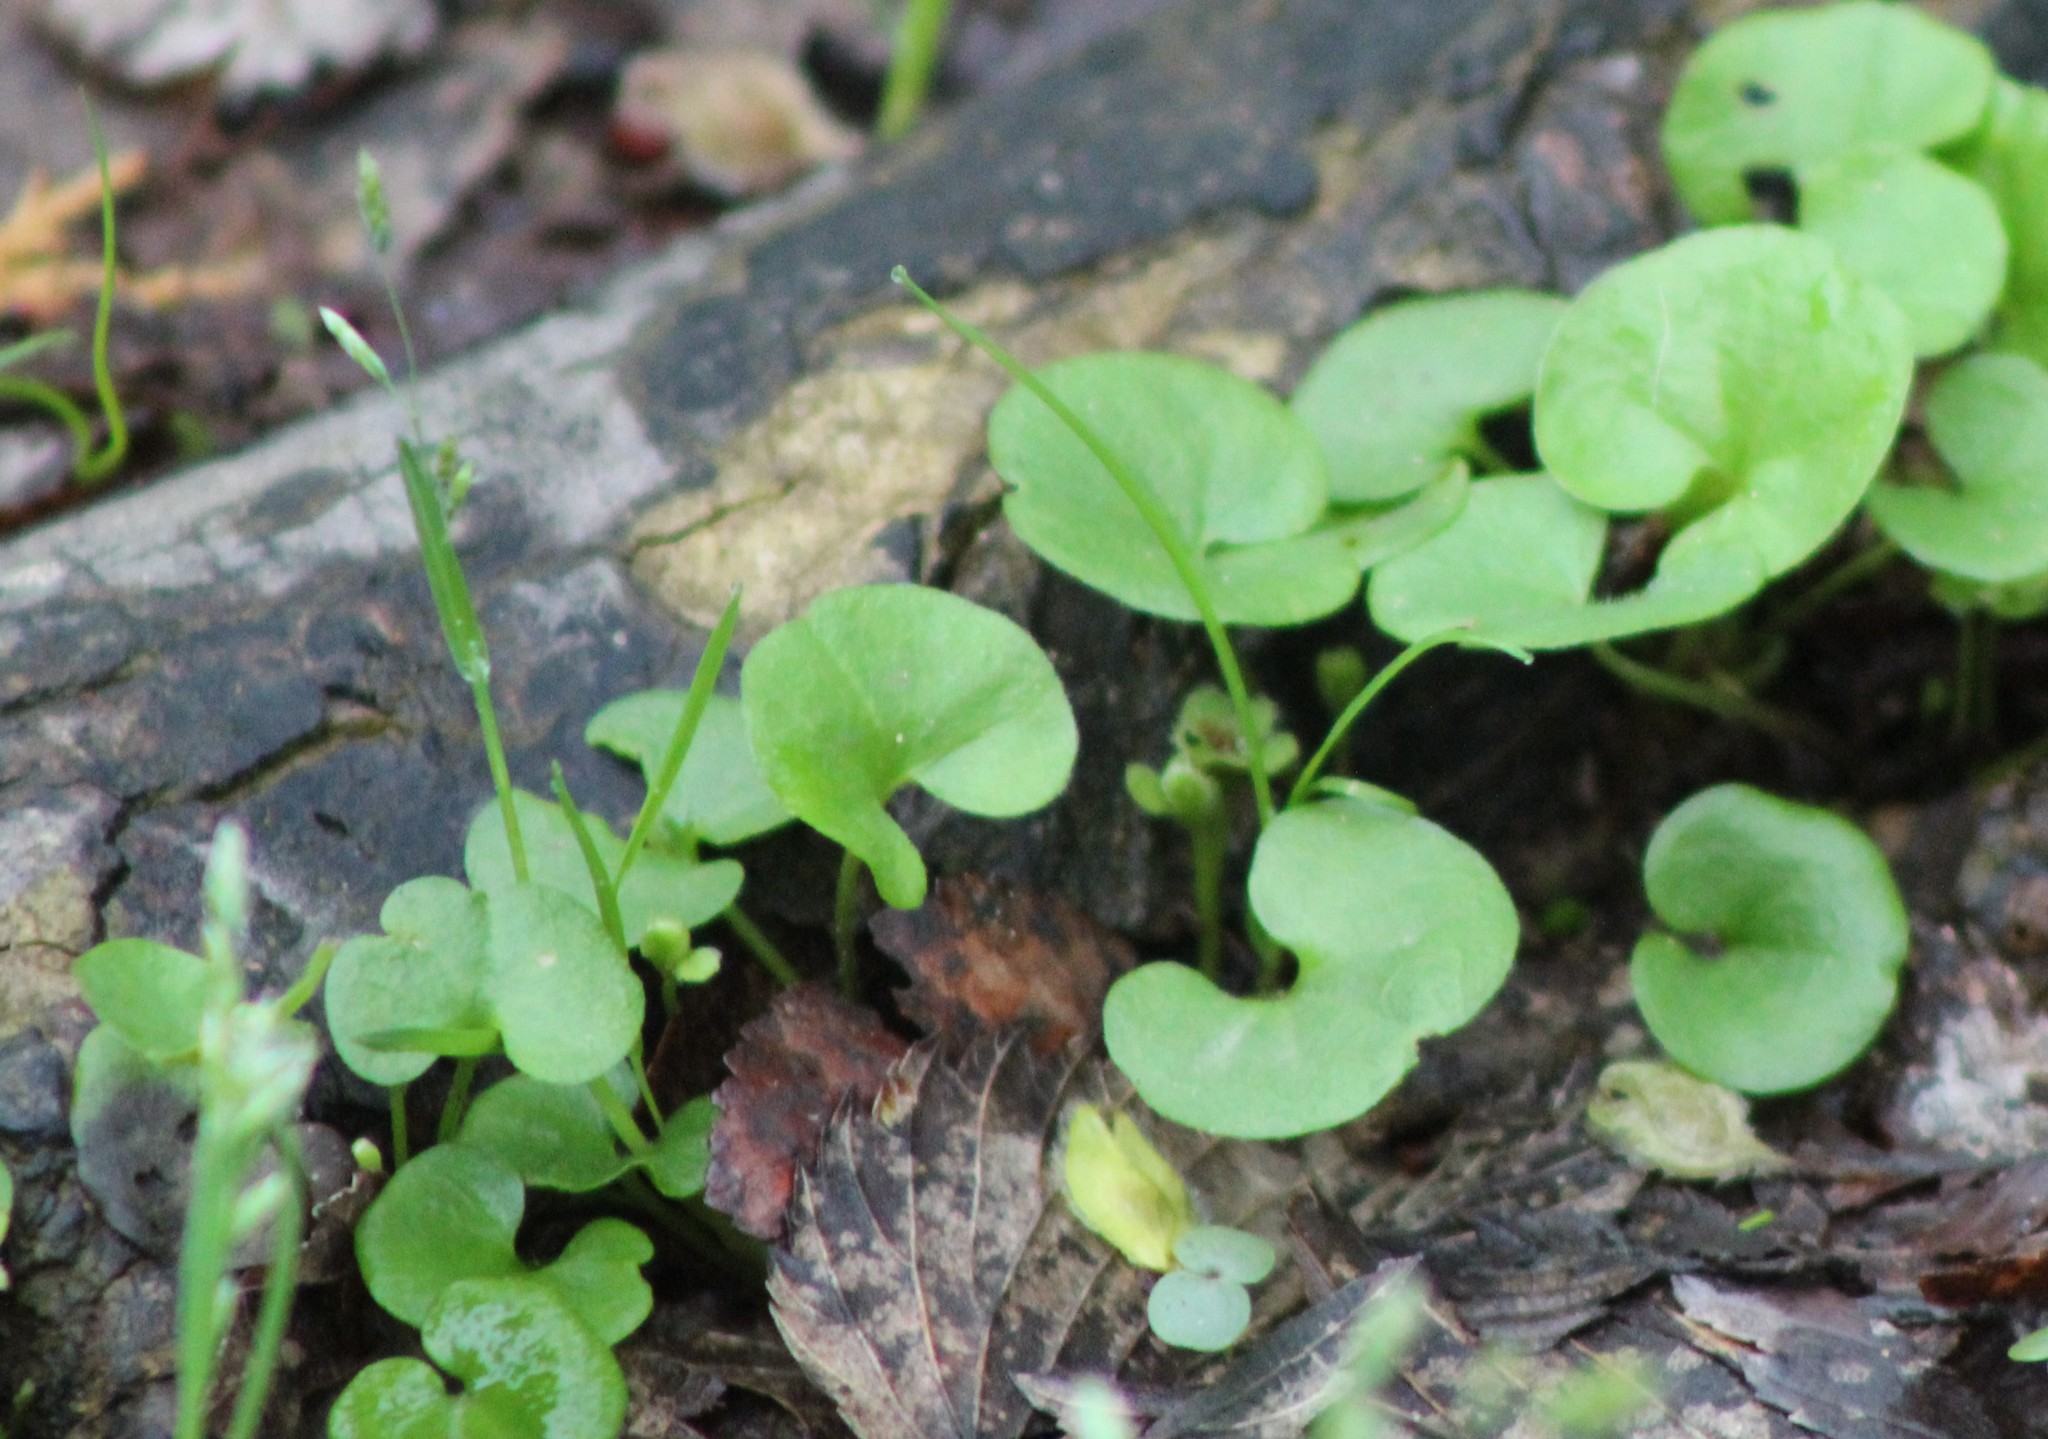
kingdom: Plantae
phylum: Tracheophyta
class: Magnoliopsida
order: Solanales
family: Convolvulaceae
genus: Dichondra
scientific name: Dichondra carolinensis
